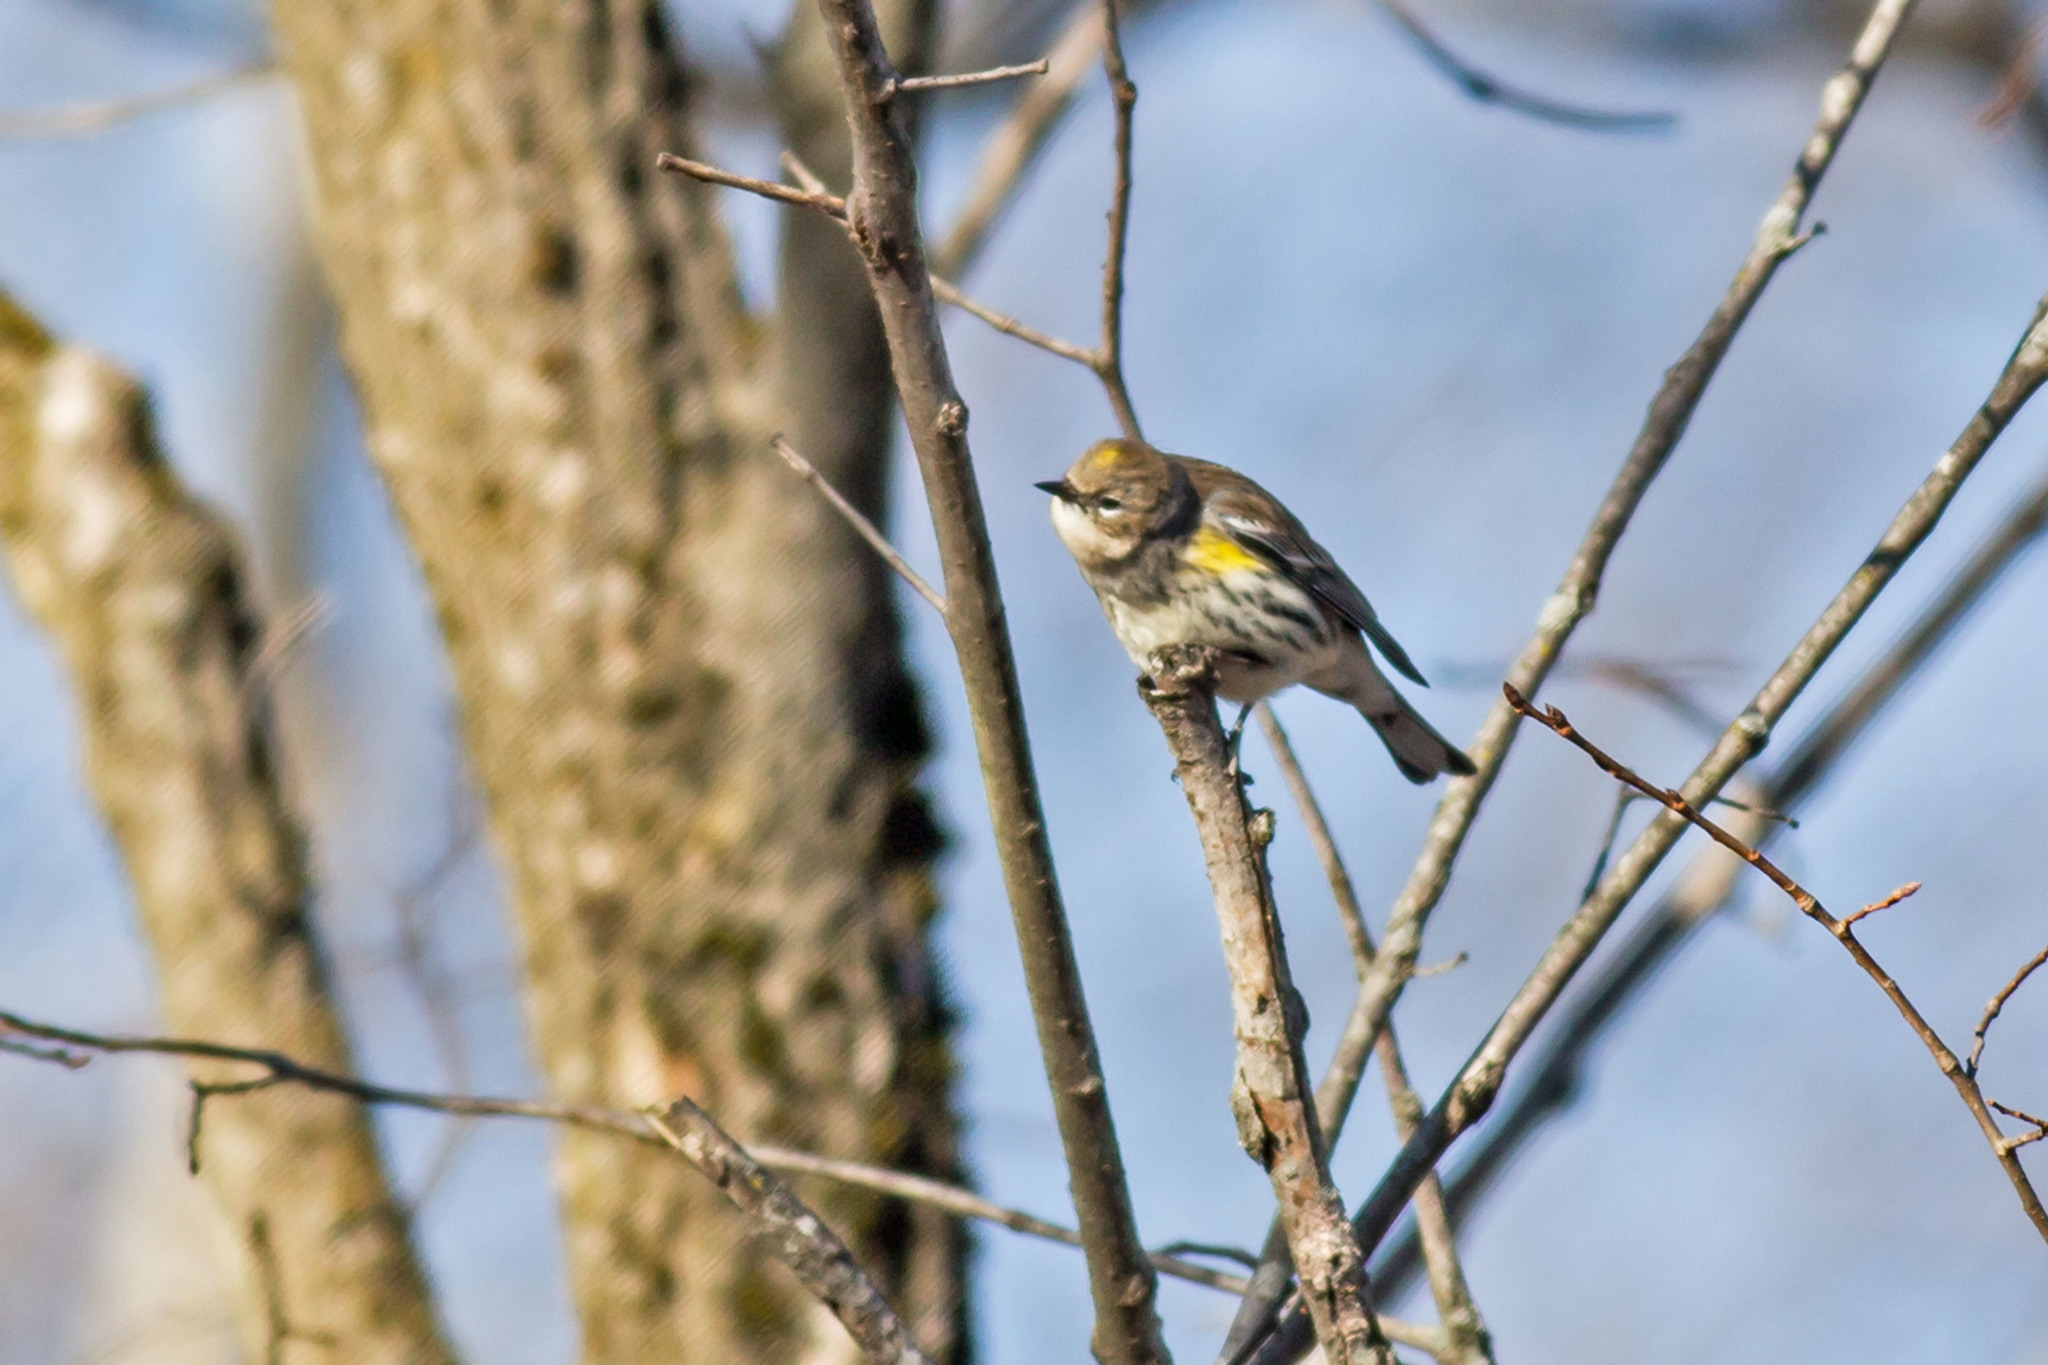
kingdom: Animalia
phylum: Chordata
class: Aves
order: Passeriformes
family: Parulidae
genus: Setophaga
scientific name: Setophaga coronata
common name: Myrtle warbler
